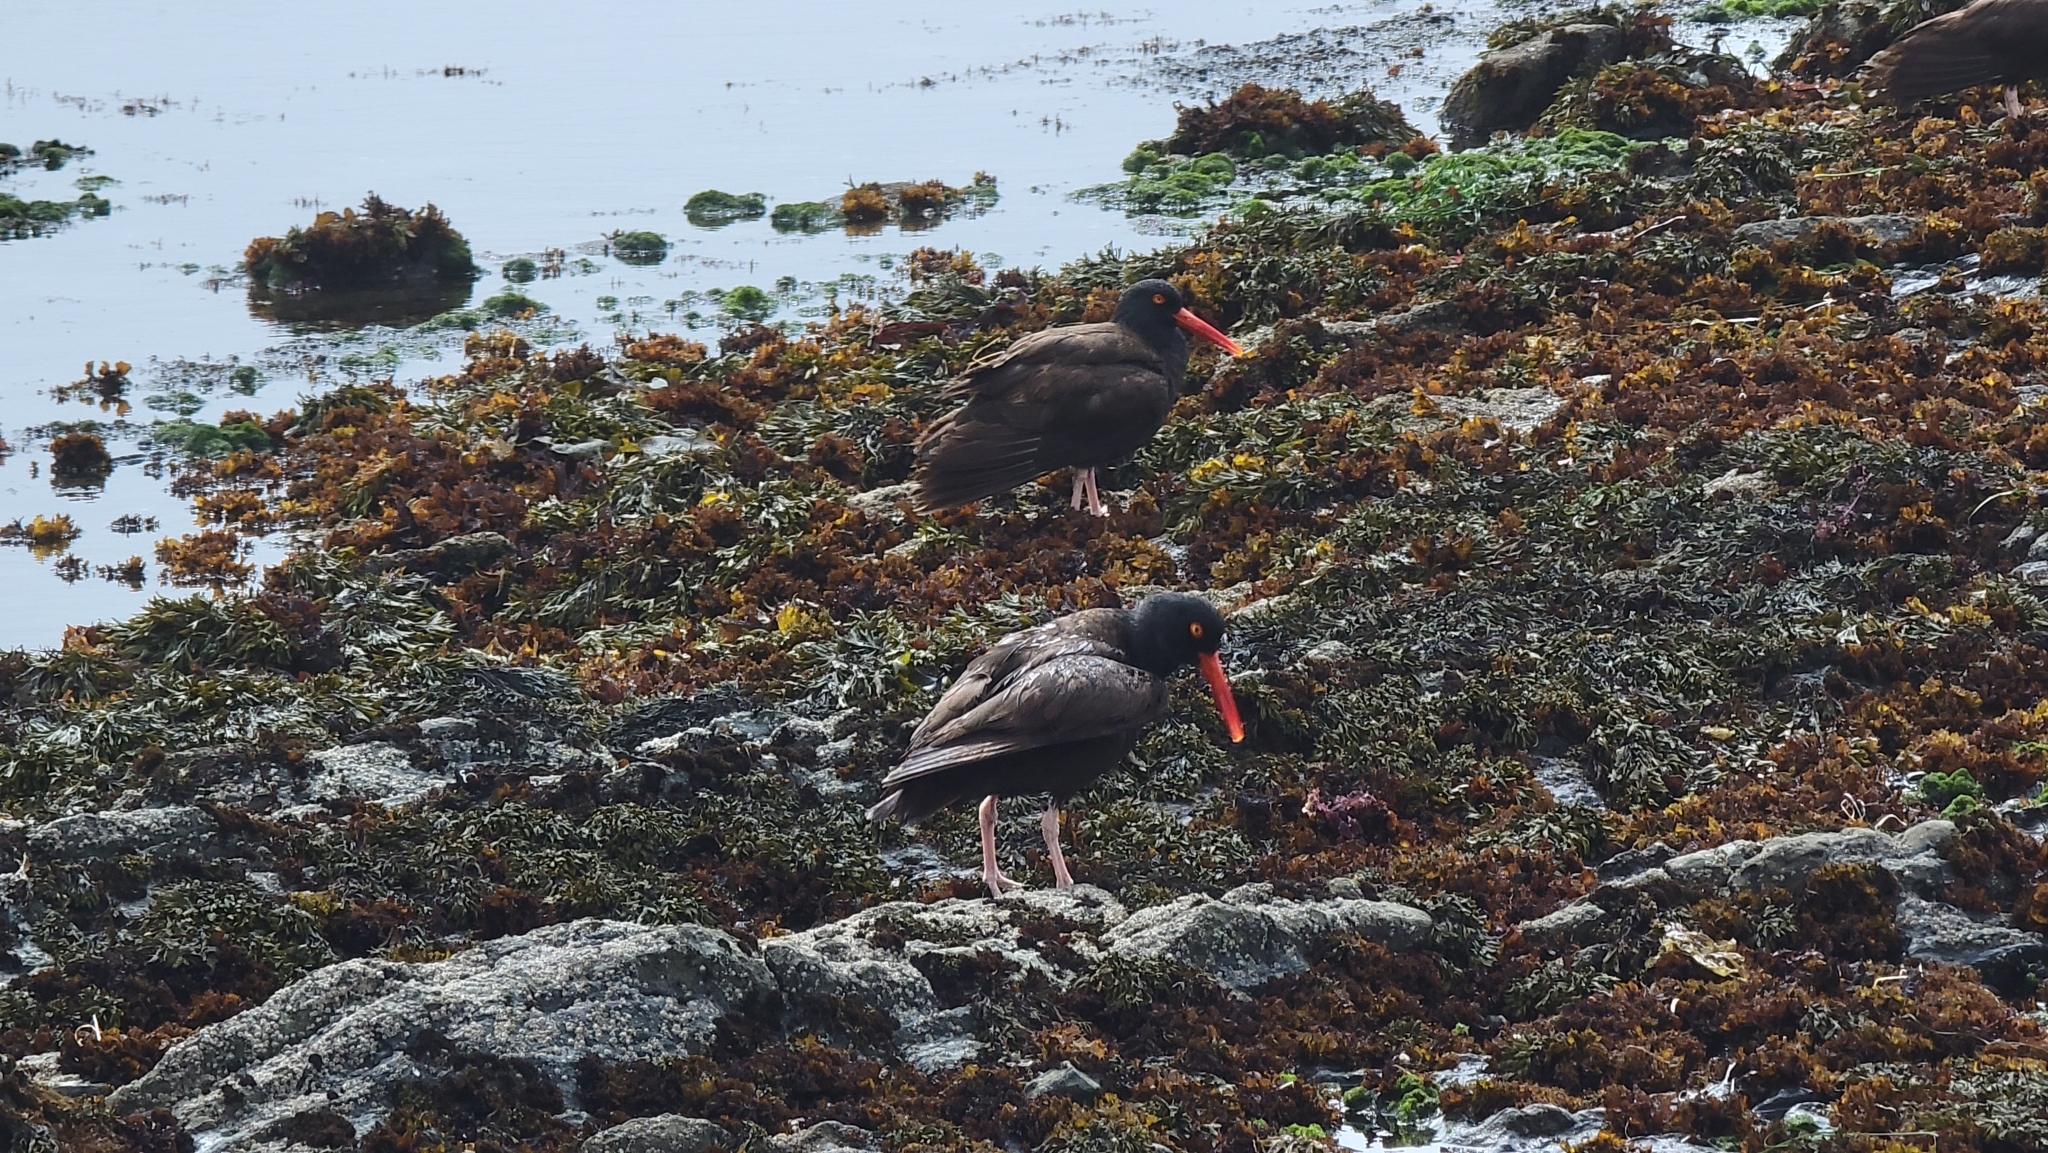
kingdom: Animalia
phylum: Chordata
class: Aves
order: Charadriiformes
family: Haematopodidae
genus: Haematopus
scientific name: Haematopus bachmani
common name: Black oystercatcher
